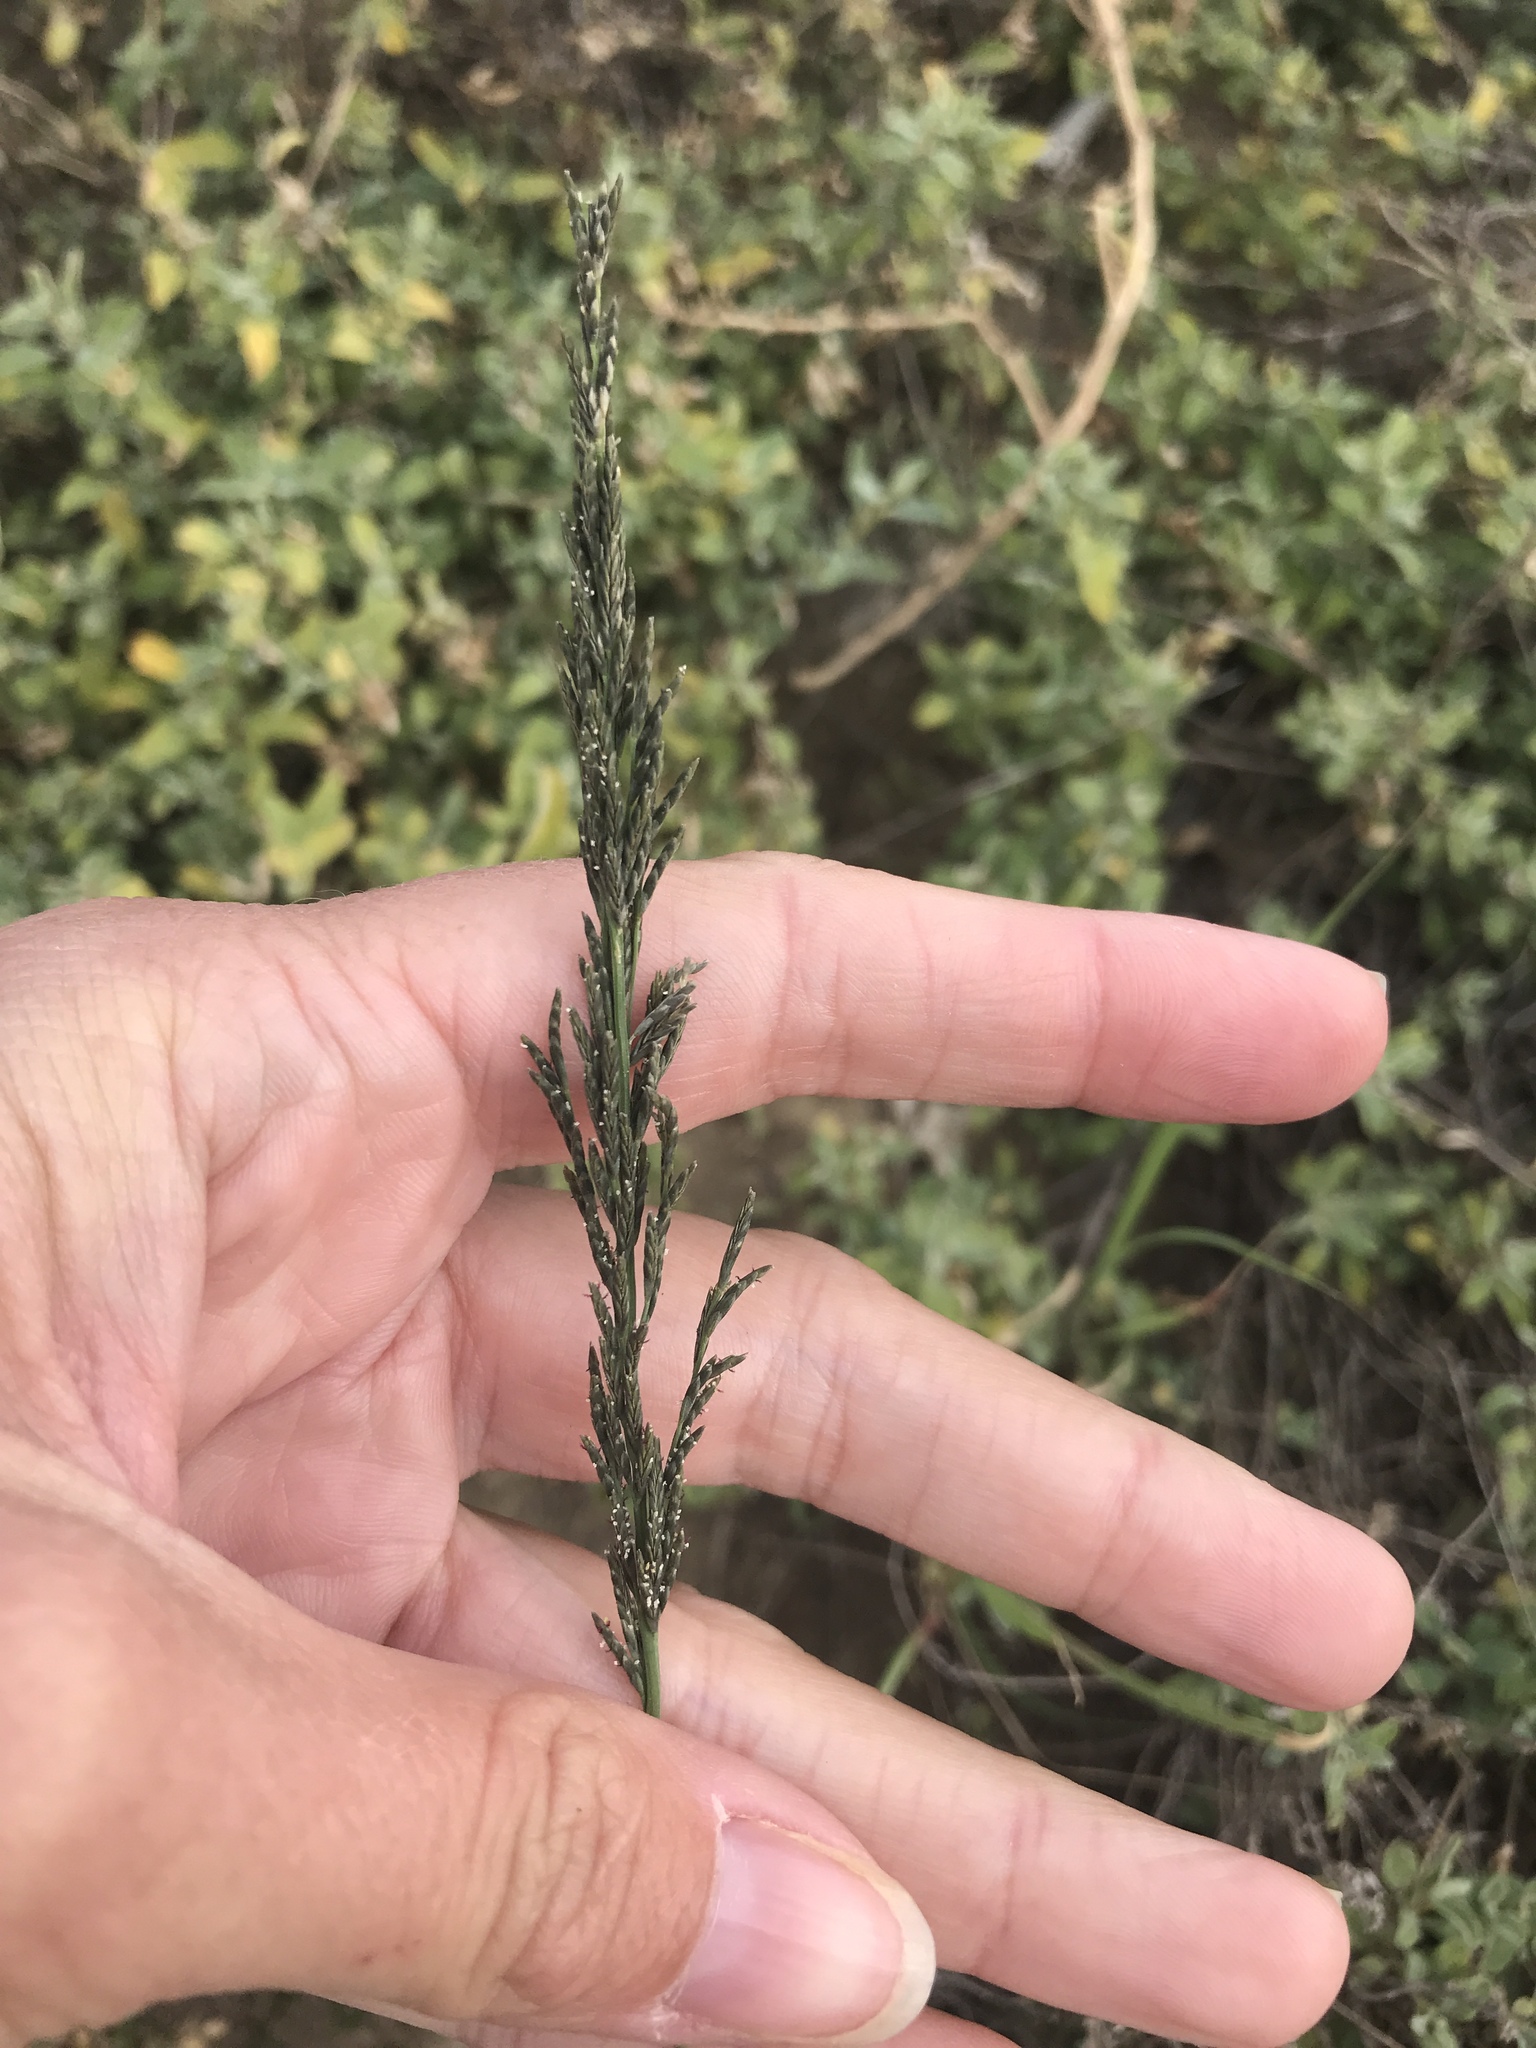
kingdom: Plantae
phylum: Tracheophyta
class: Liliopsida
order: Poales
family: Poaceae
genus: Diplachne
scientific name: Diplachne fusca
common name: Brown beetle grass
